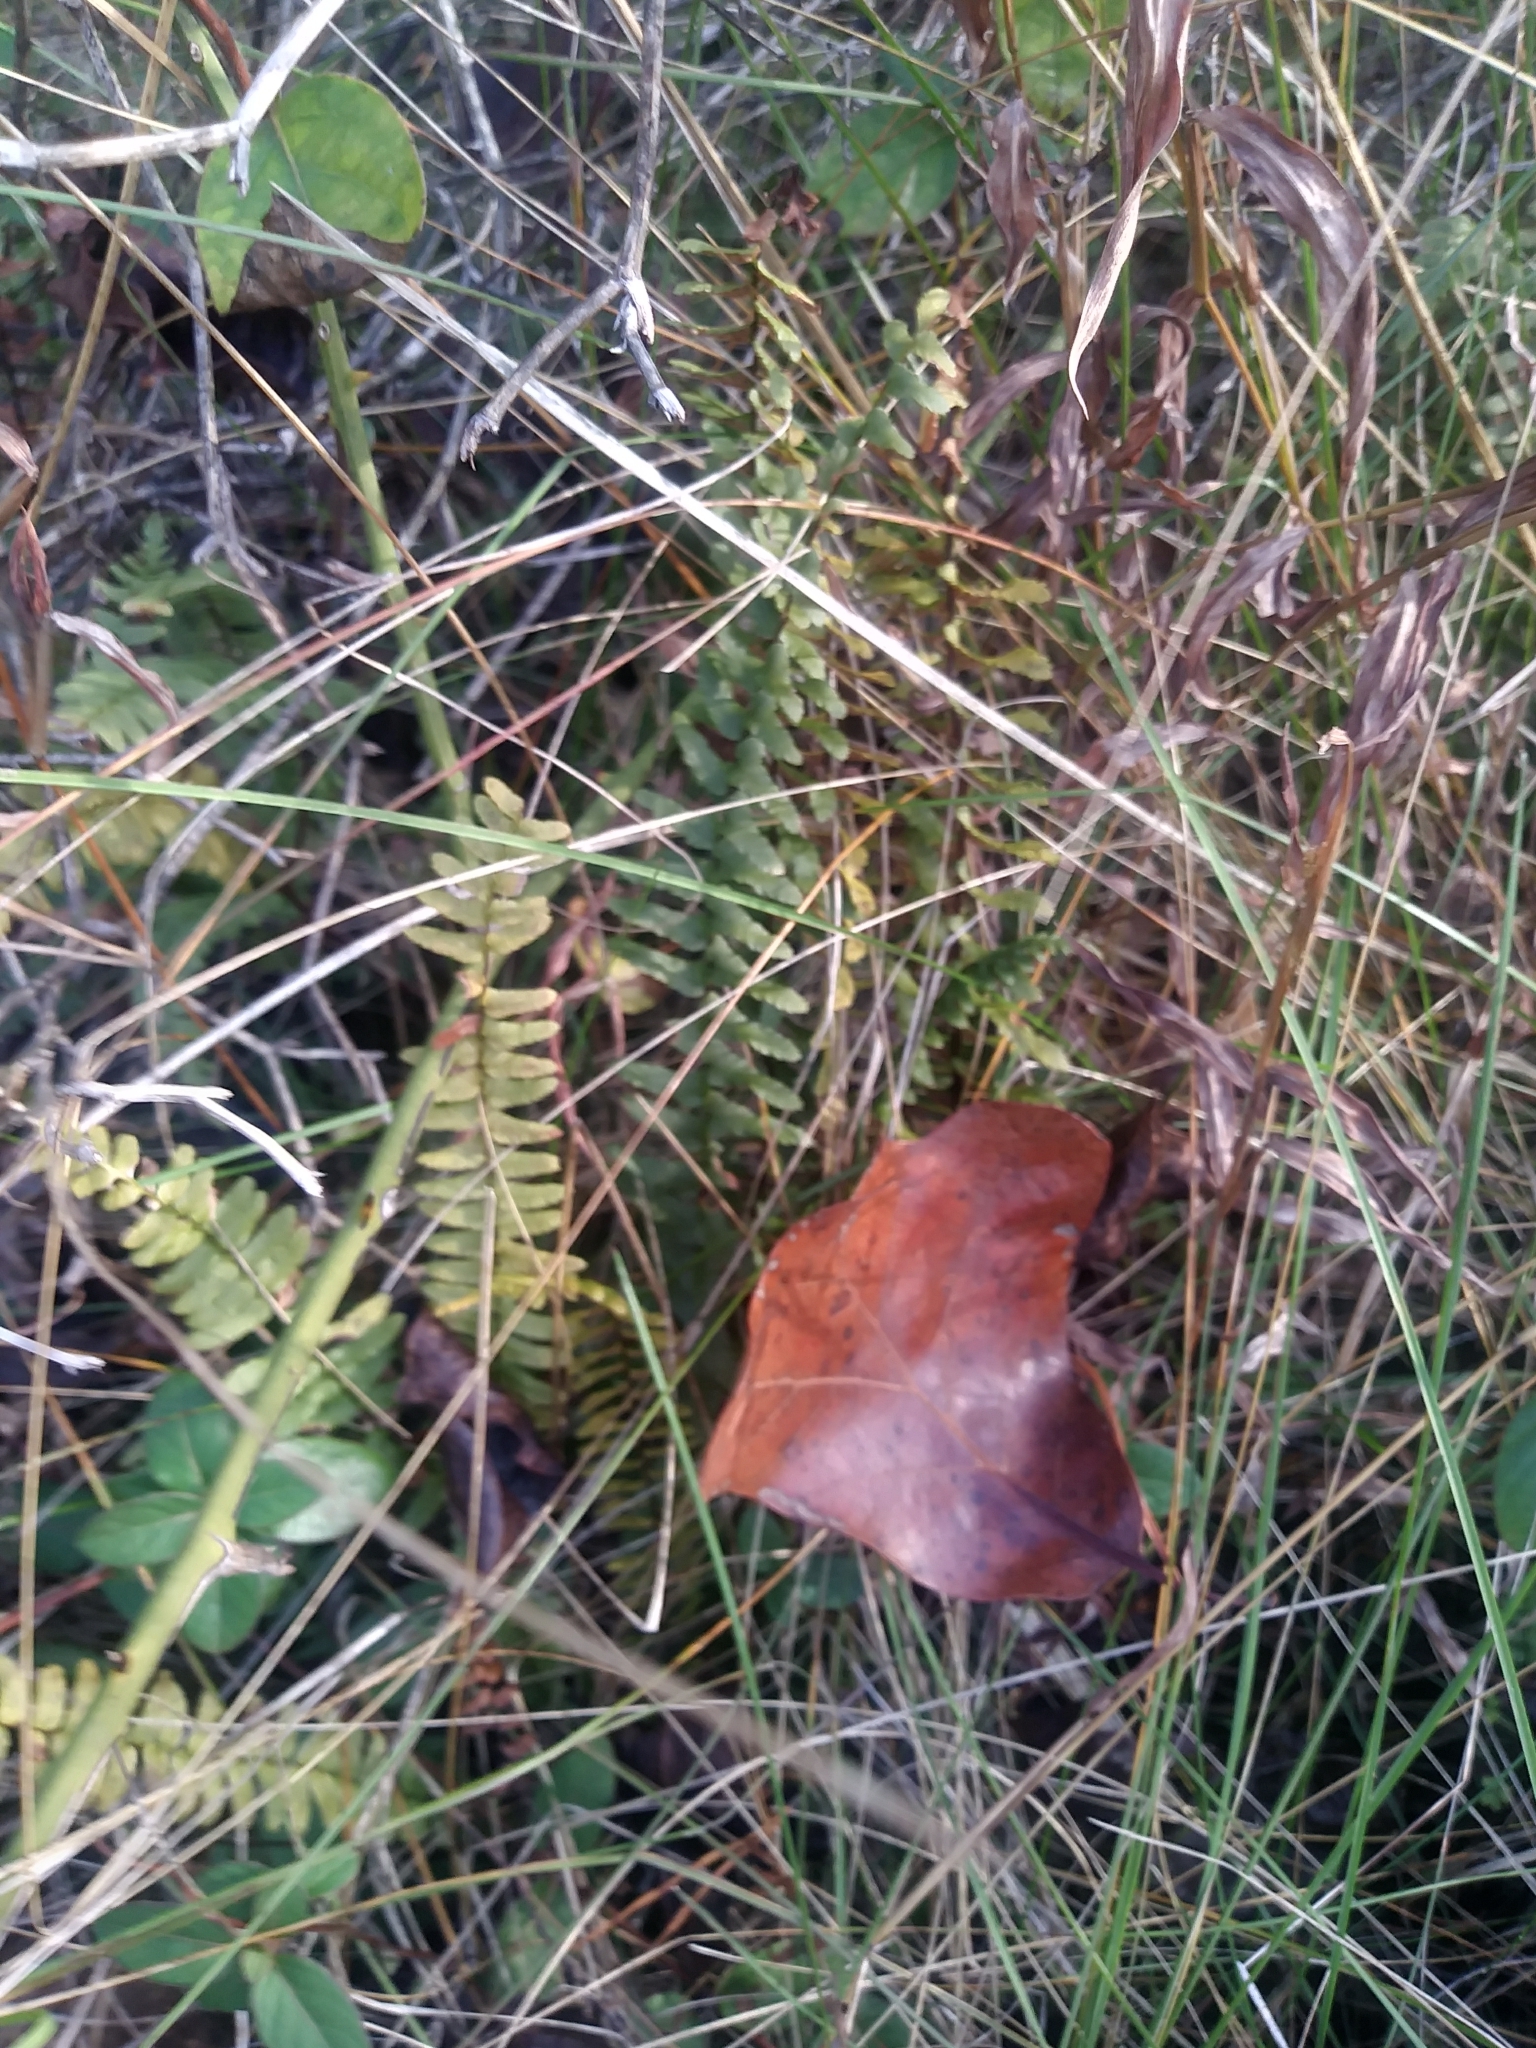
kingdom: Plantae
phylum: Tracheophyta
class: Polypodiopsida
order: Polypodiales
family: Aspleniaceae
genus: Asplenium
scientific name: Asplenium platyneuron
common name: Ebony spleenwort
